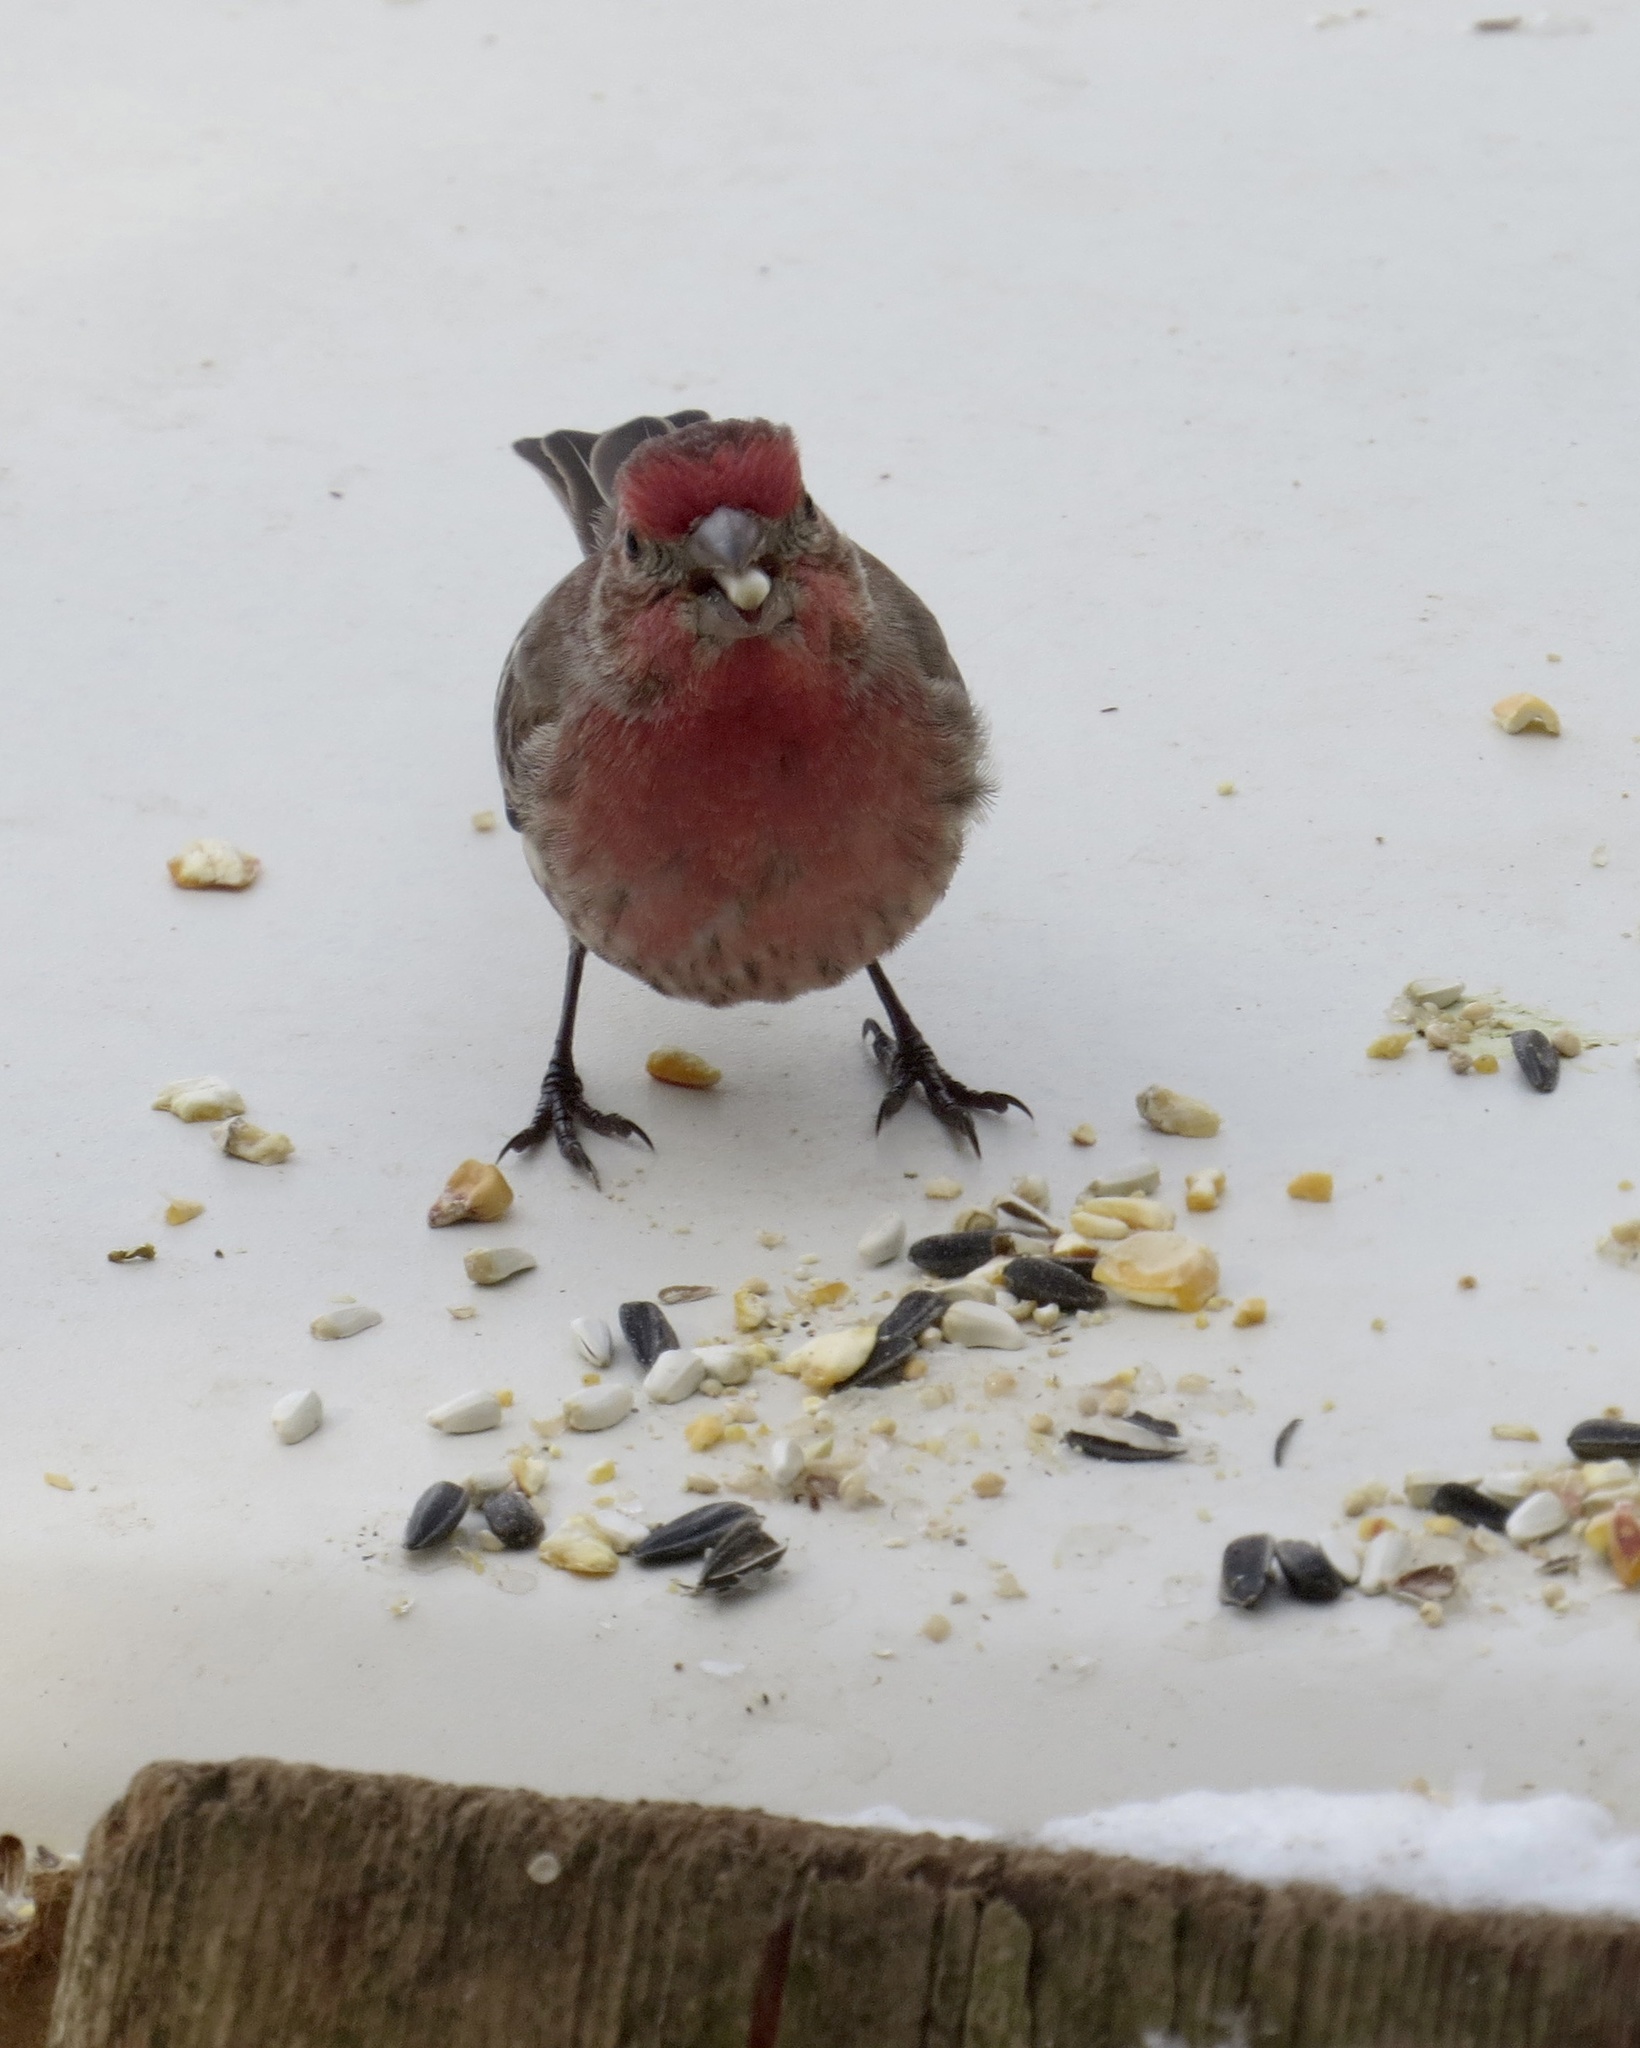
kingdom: Animalia
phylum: Chordata
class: Aves
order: Passeriformes
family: Fringillidae
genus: Haemorhous
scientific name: Haemorhous mexicanus
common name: House finch
